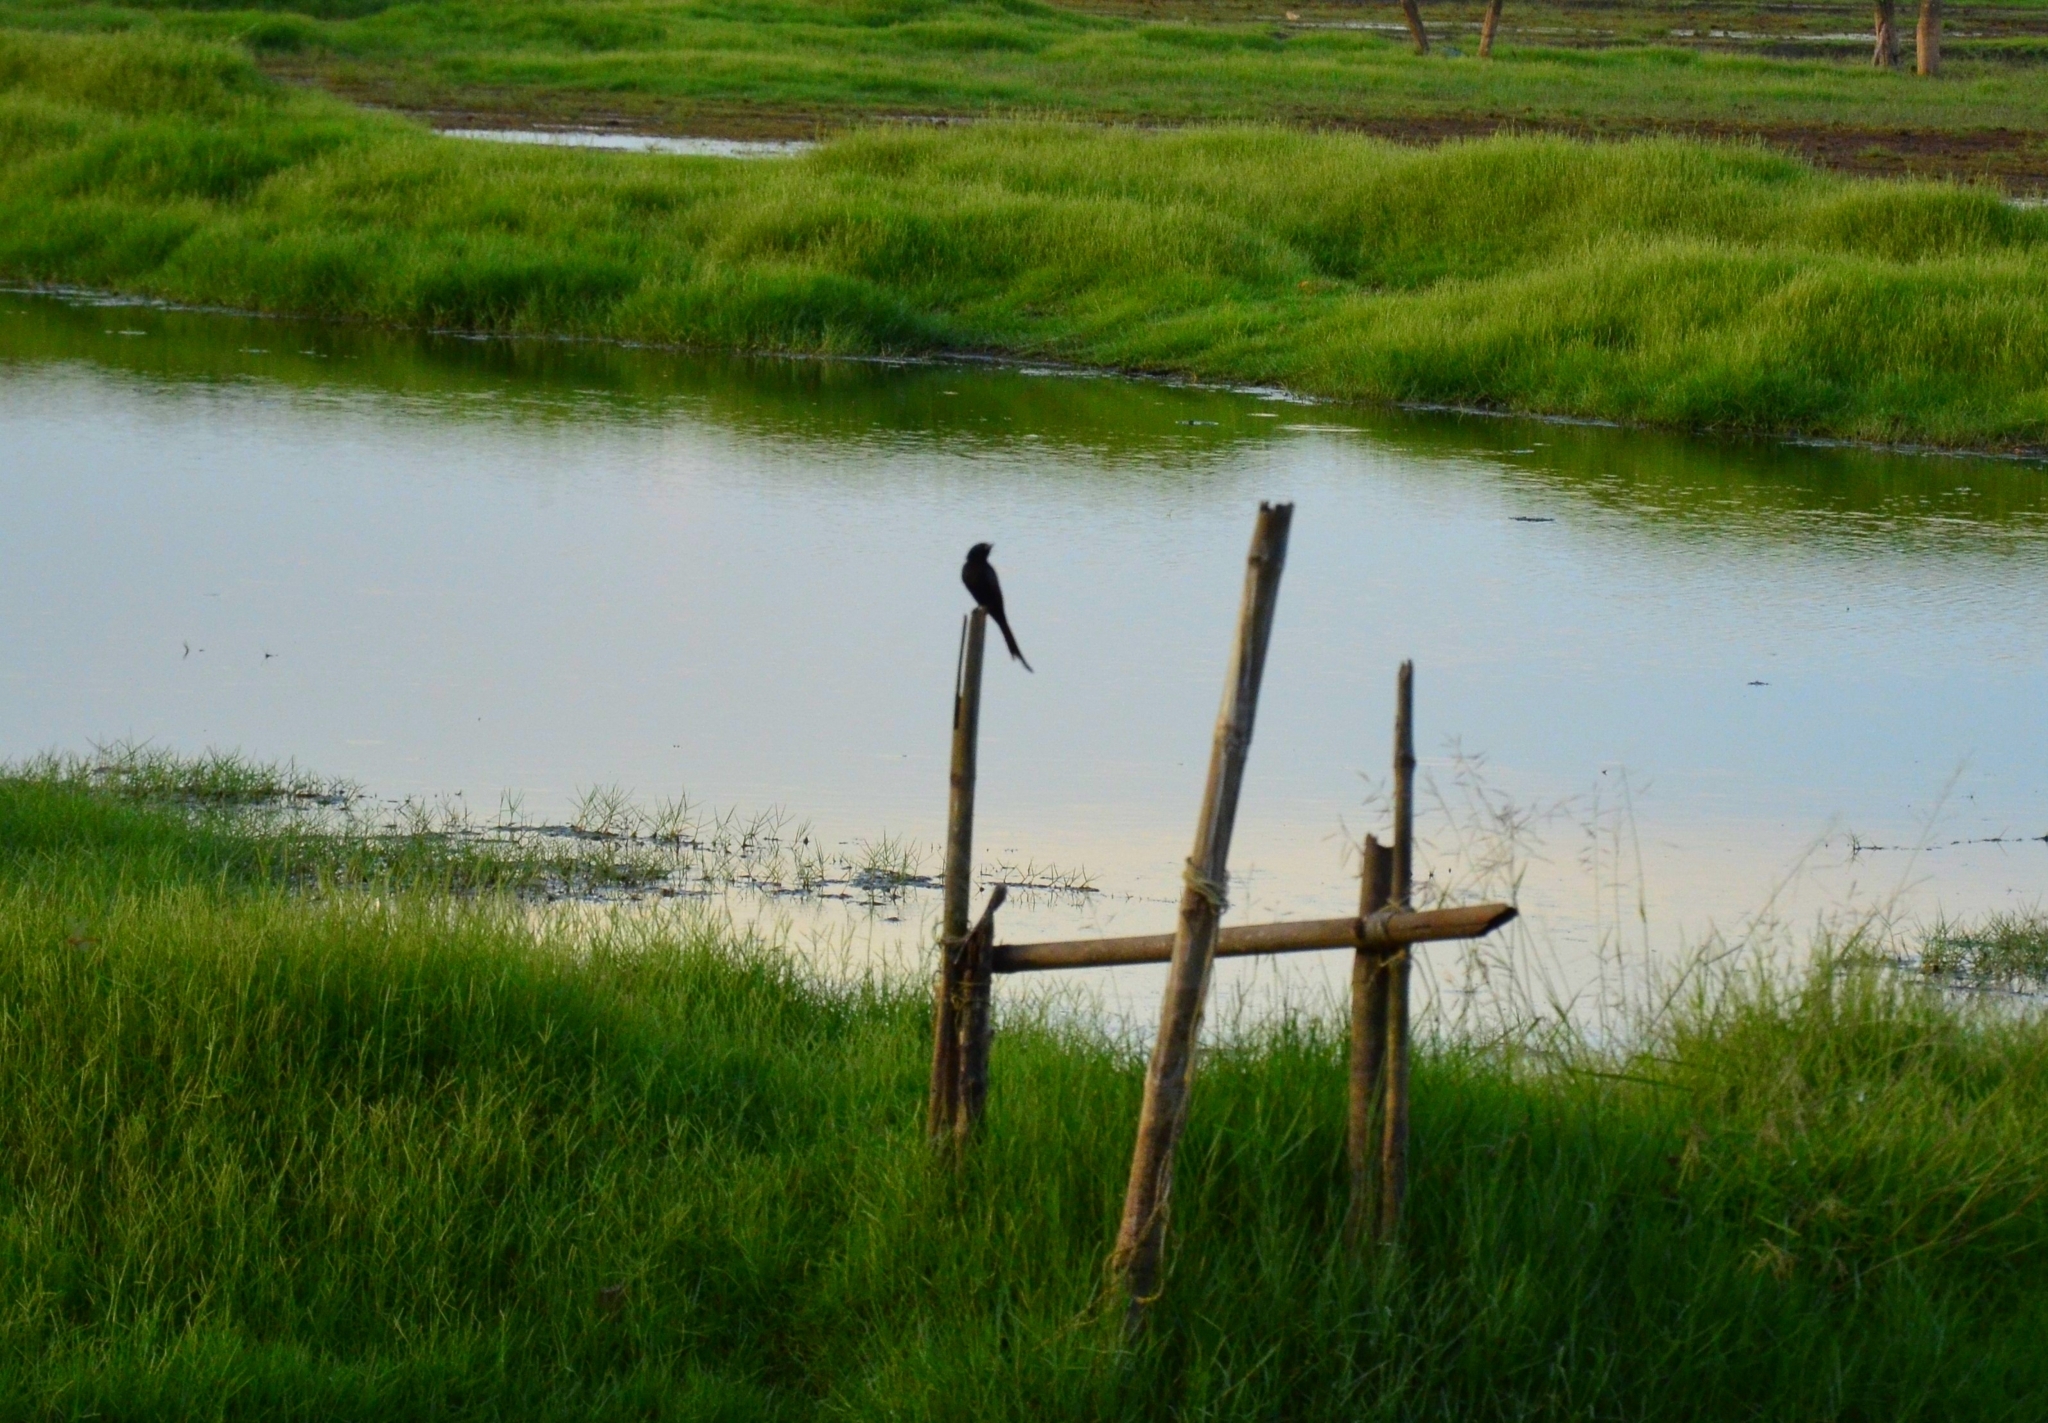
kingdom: Animalia
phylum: Chordata
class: Aves
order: Passeriformes
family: Dicruridae
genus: Dicrurus
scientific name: Dicrurus macrocercus
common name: Black drongo
